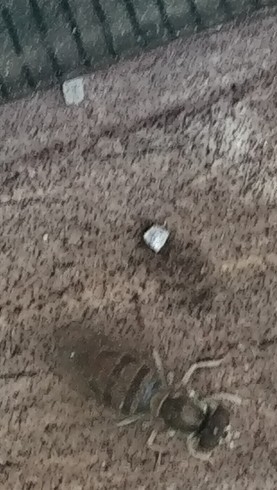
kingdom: Animalia
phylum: Arthropoda
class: Insecta
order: Diptera
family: Syrphidae
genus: Toxomerus
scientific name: Toxomerus marginatus
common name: Syrphid fly
